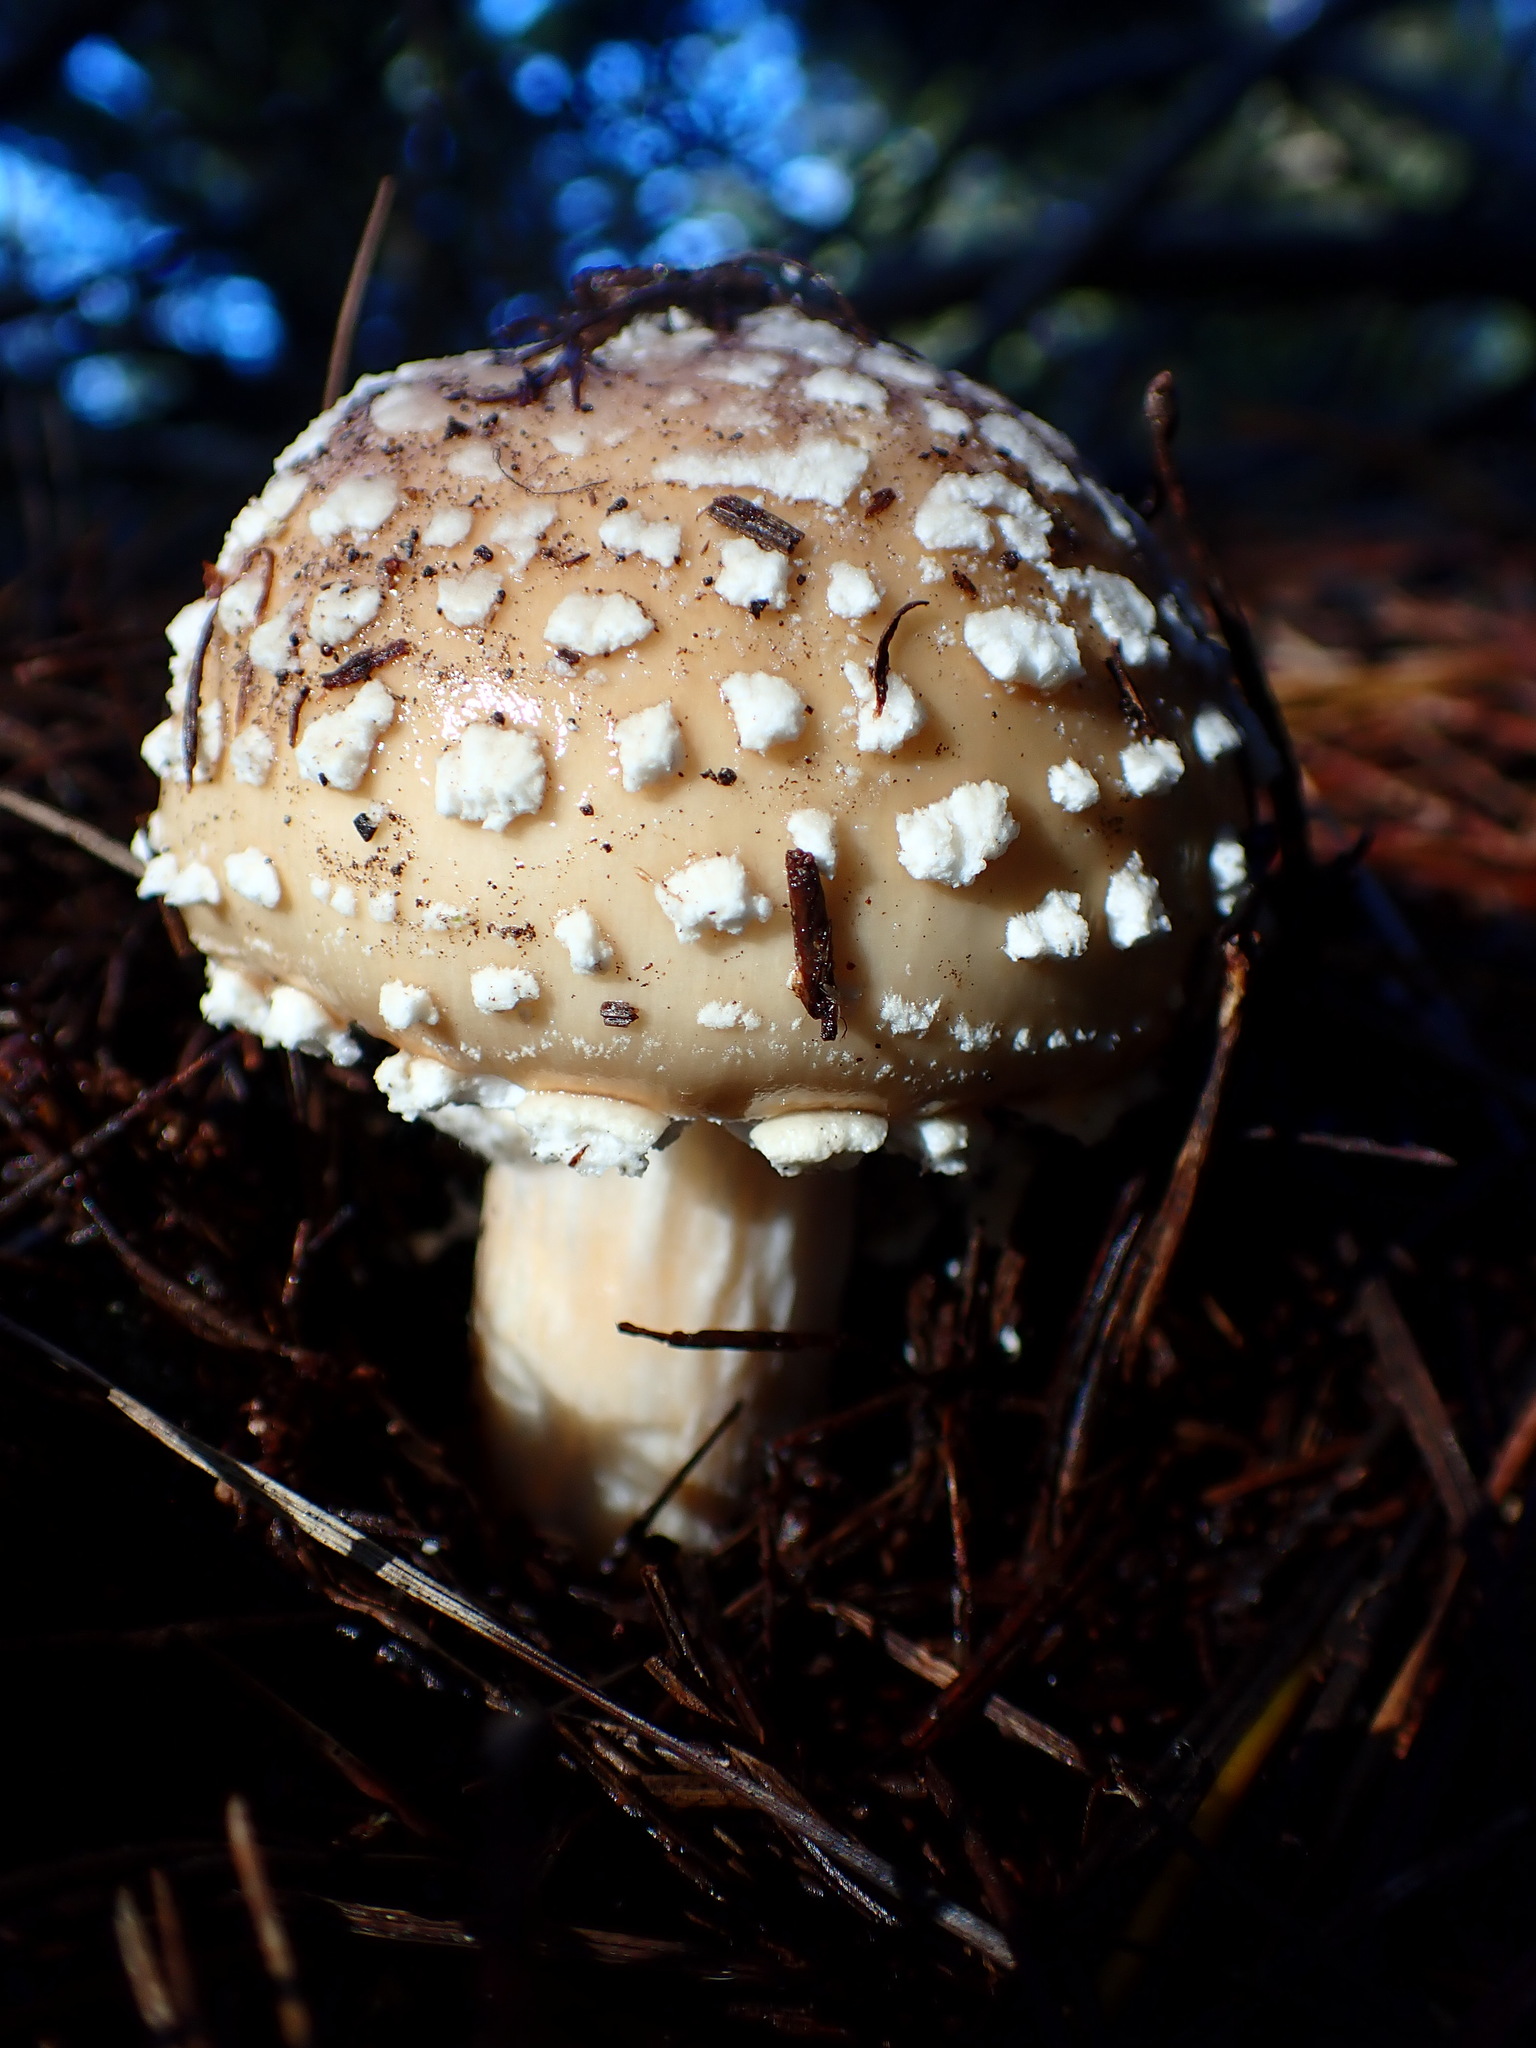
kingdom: Fungi
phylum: Basidiomycota
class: Agaricomycetes
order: Agaricales
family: Amanitaceae
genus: Amanita
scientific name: Amanita pantherinoides
